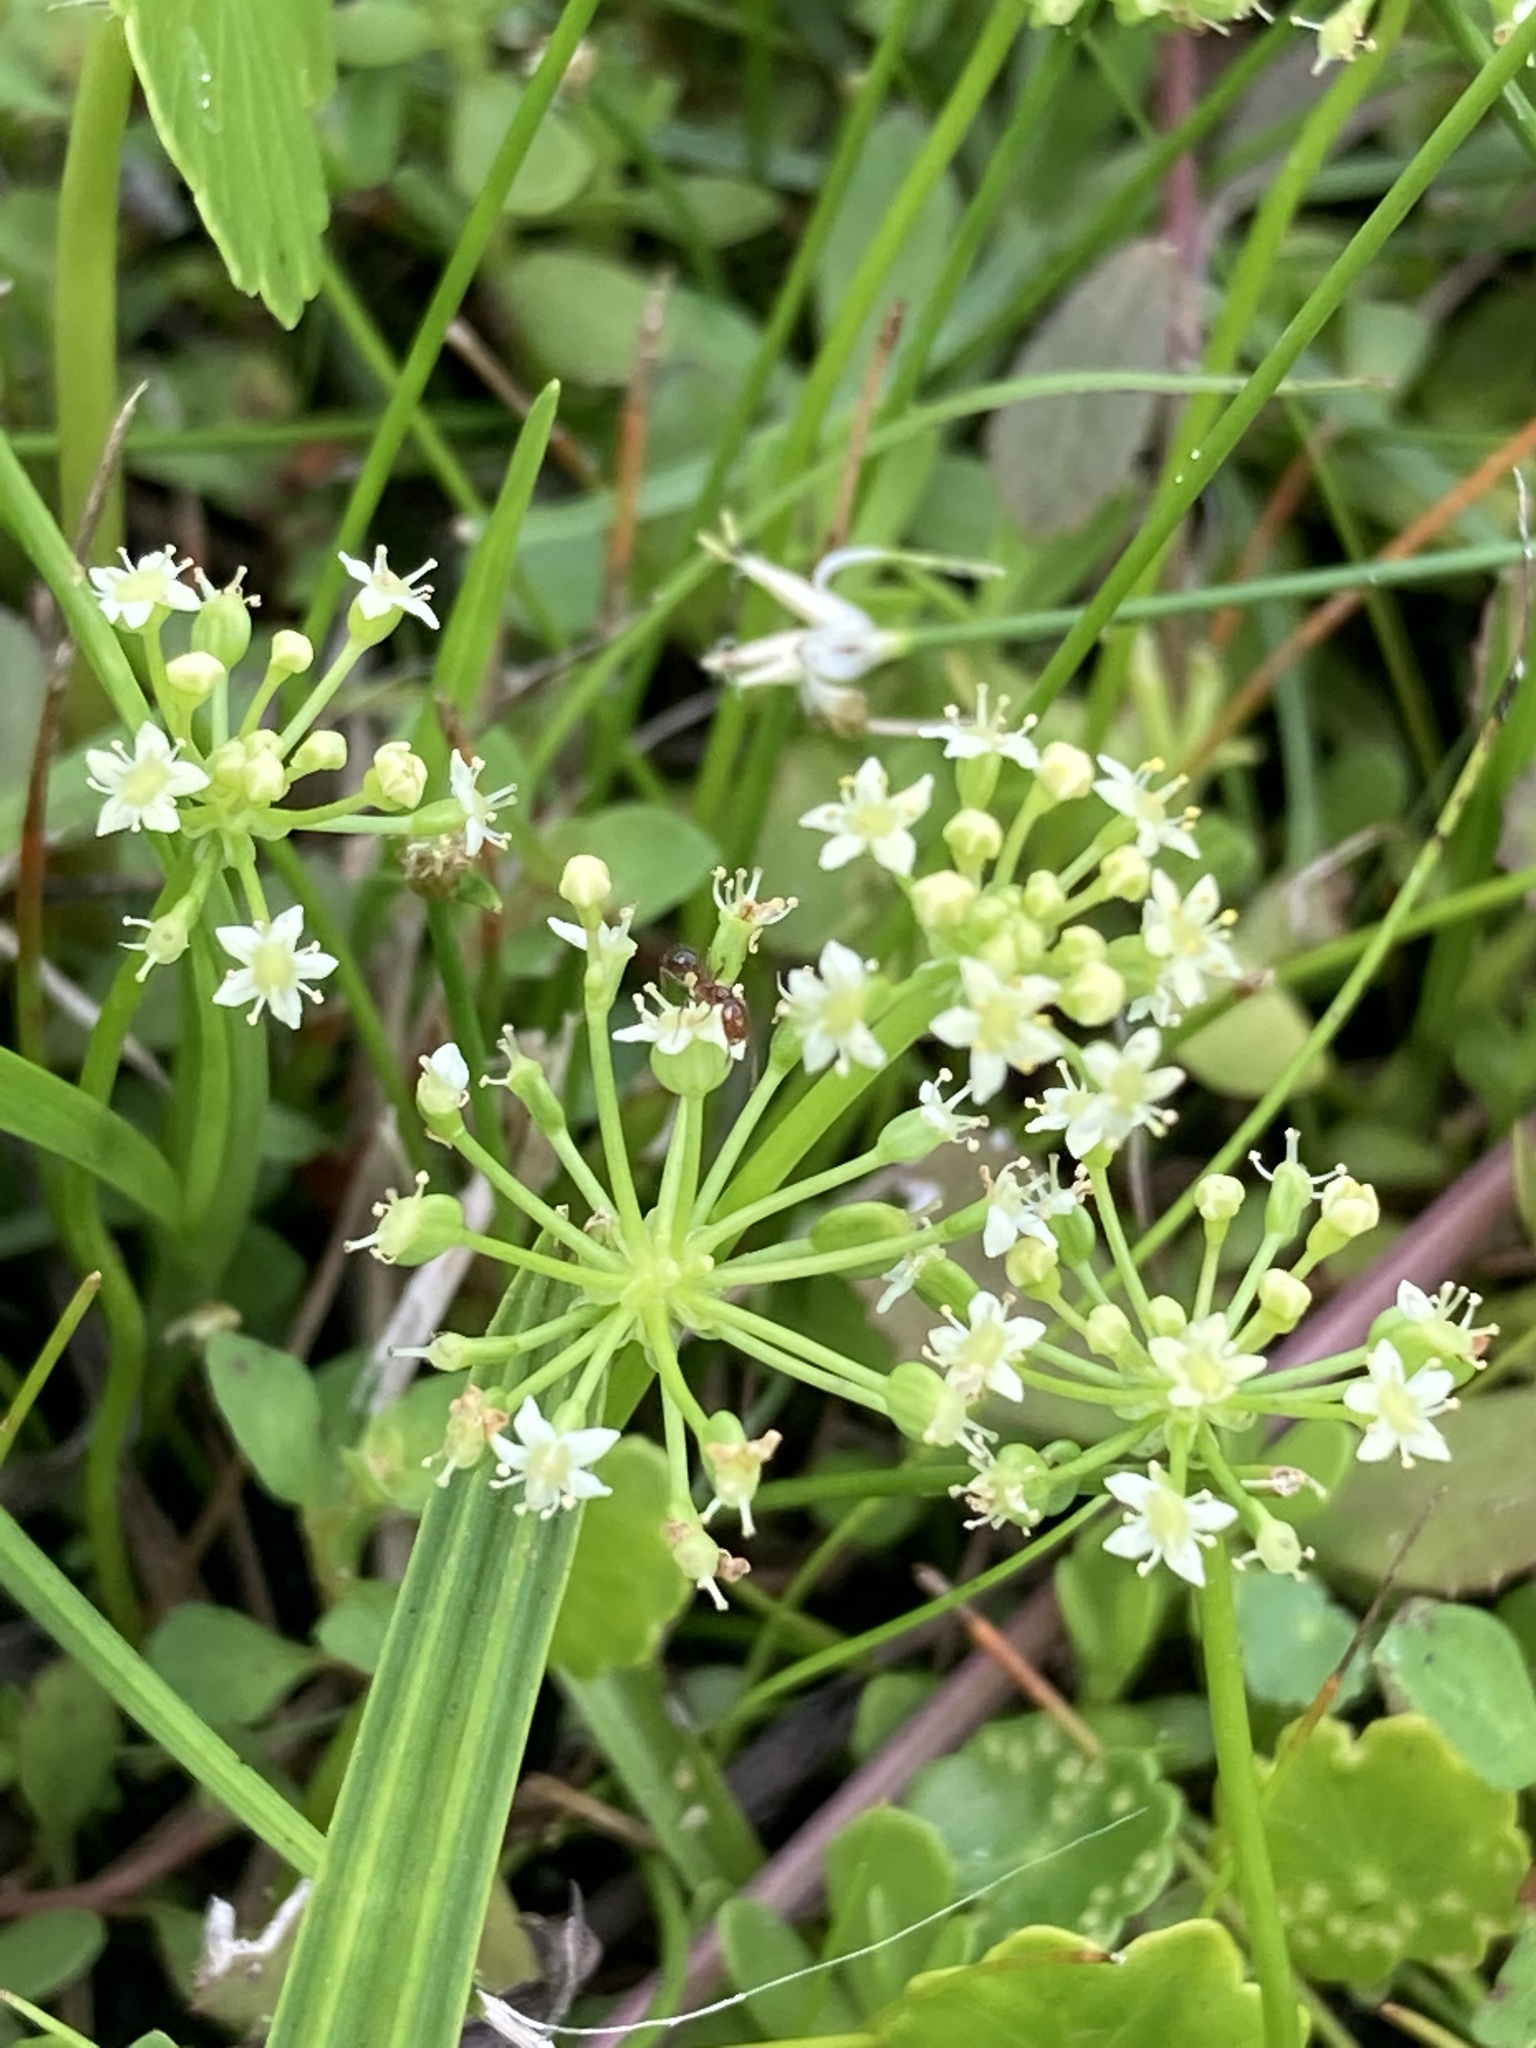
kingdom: Plantae
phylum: Tracheophyta
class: Magnoliopsida
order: Apiales
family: Araliaceae
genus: Hydrocotyle
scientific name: Hydrocotyle umbellata
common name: Water pennywort
